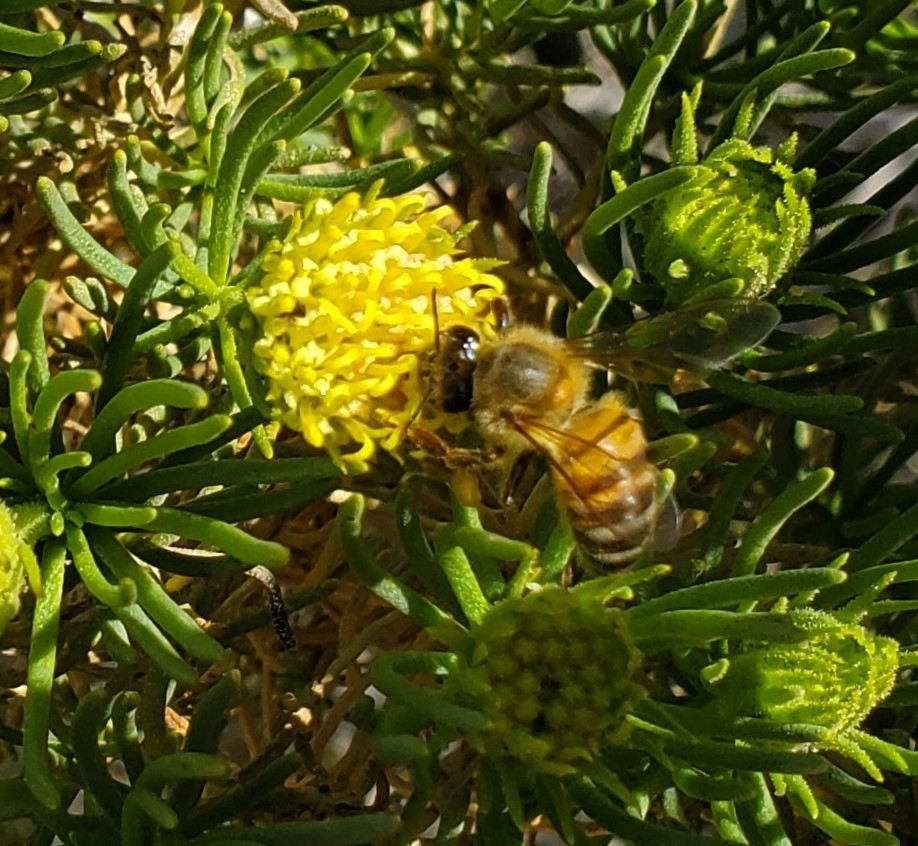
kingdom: Animalia
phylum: Arthropoda
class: Insecta
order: Hymenoptera
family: Apidae
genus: Apis
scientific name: Apis mellifera
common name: Honey bee
